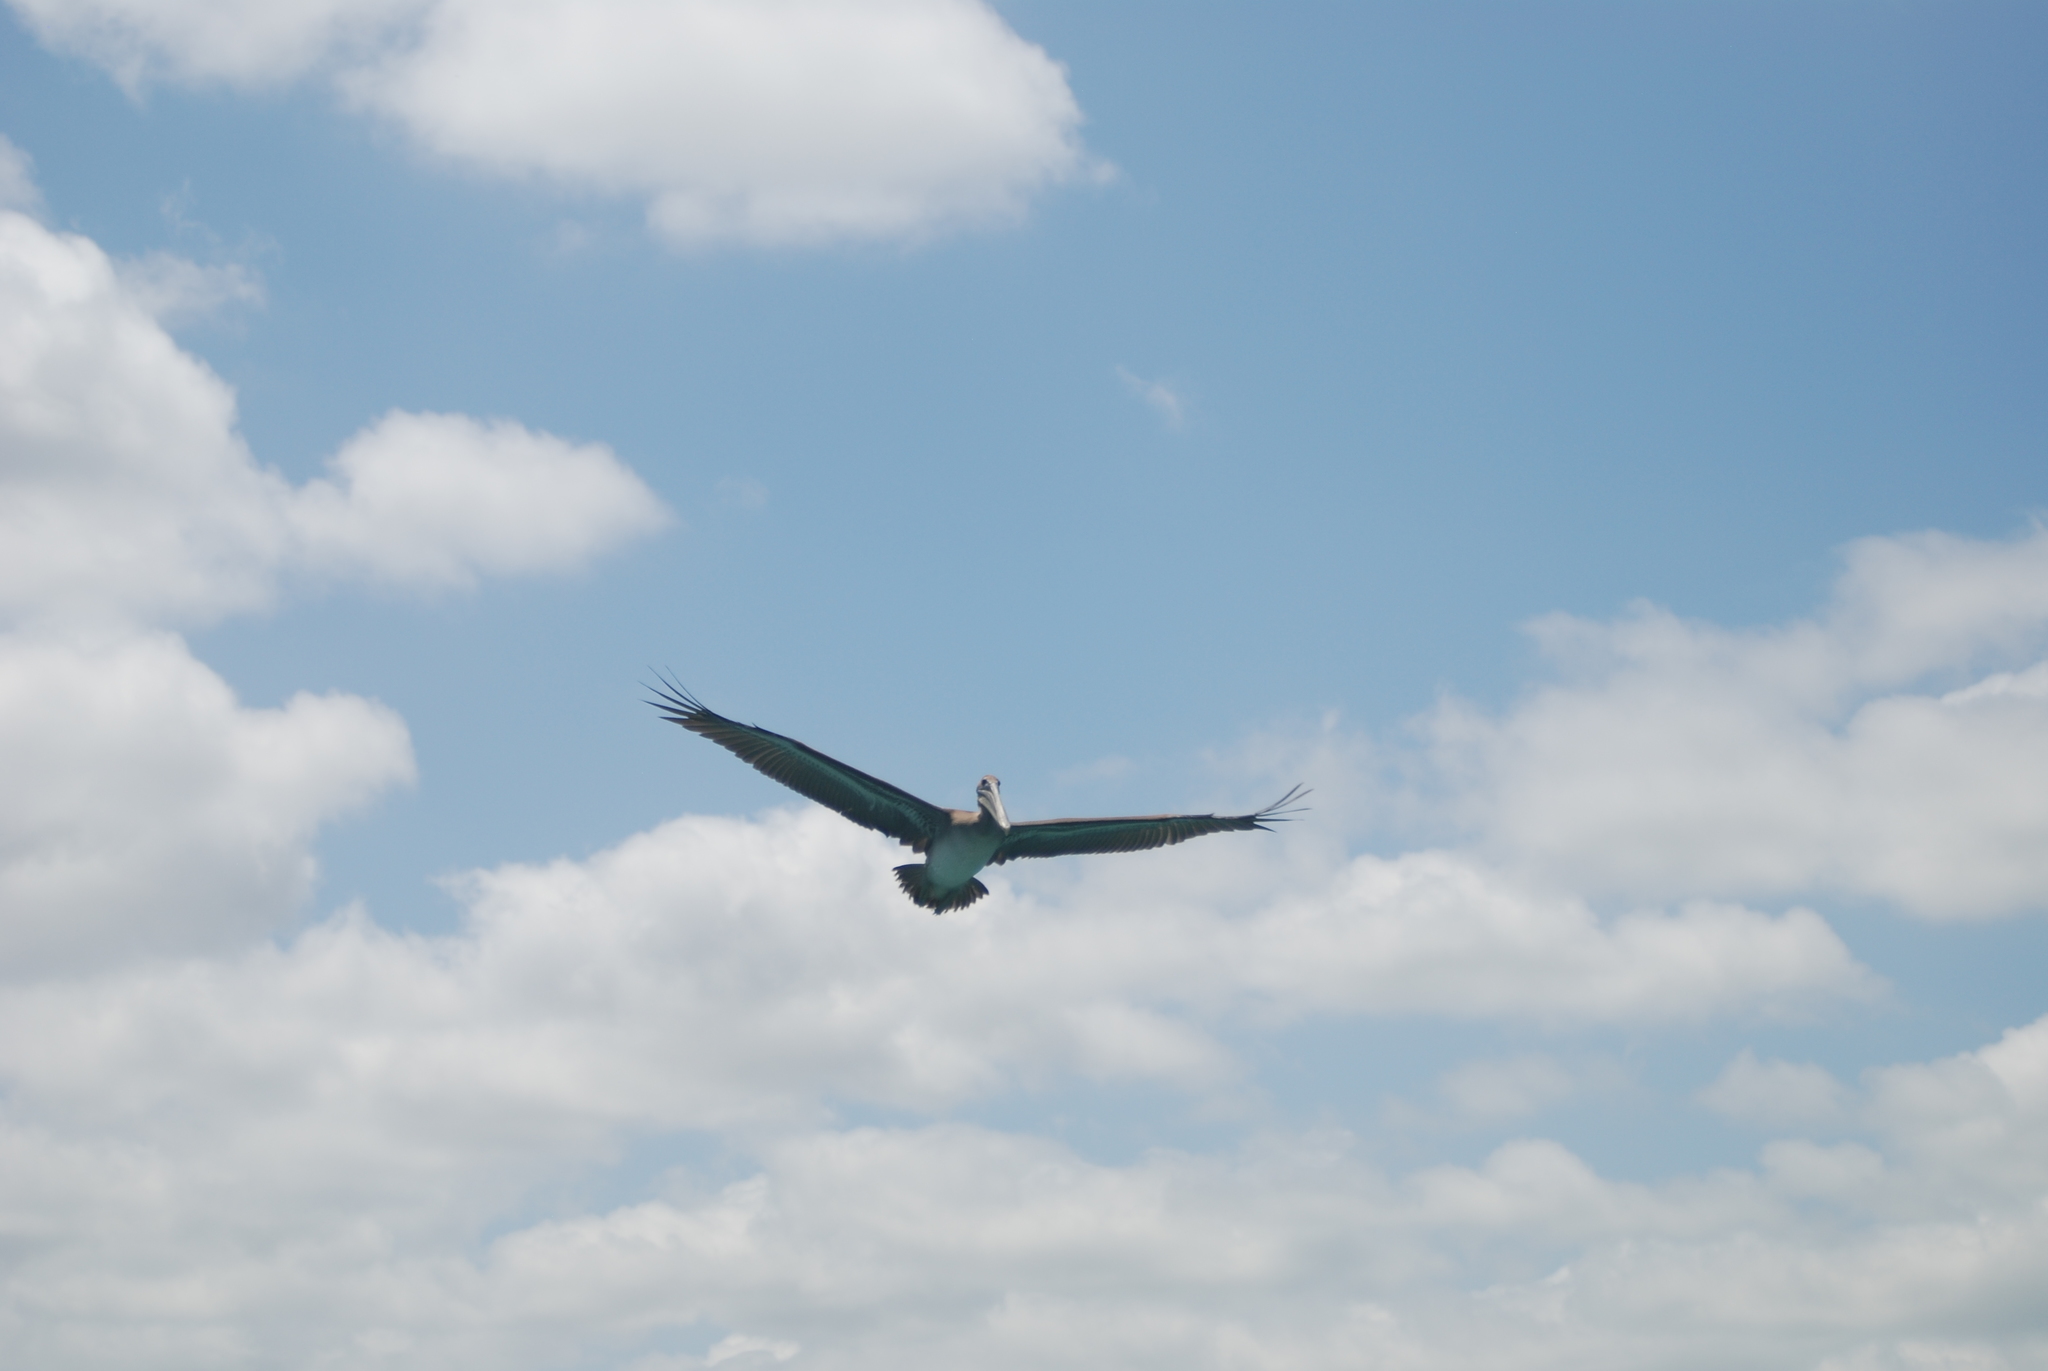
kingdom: Animalia
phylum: Chordata
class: Aves
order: Pelecaniformes
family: Pelecanidae
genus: Pelecanus
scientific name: Pelecanus occidentalis
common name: Brown pelican
